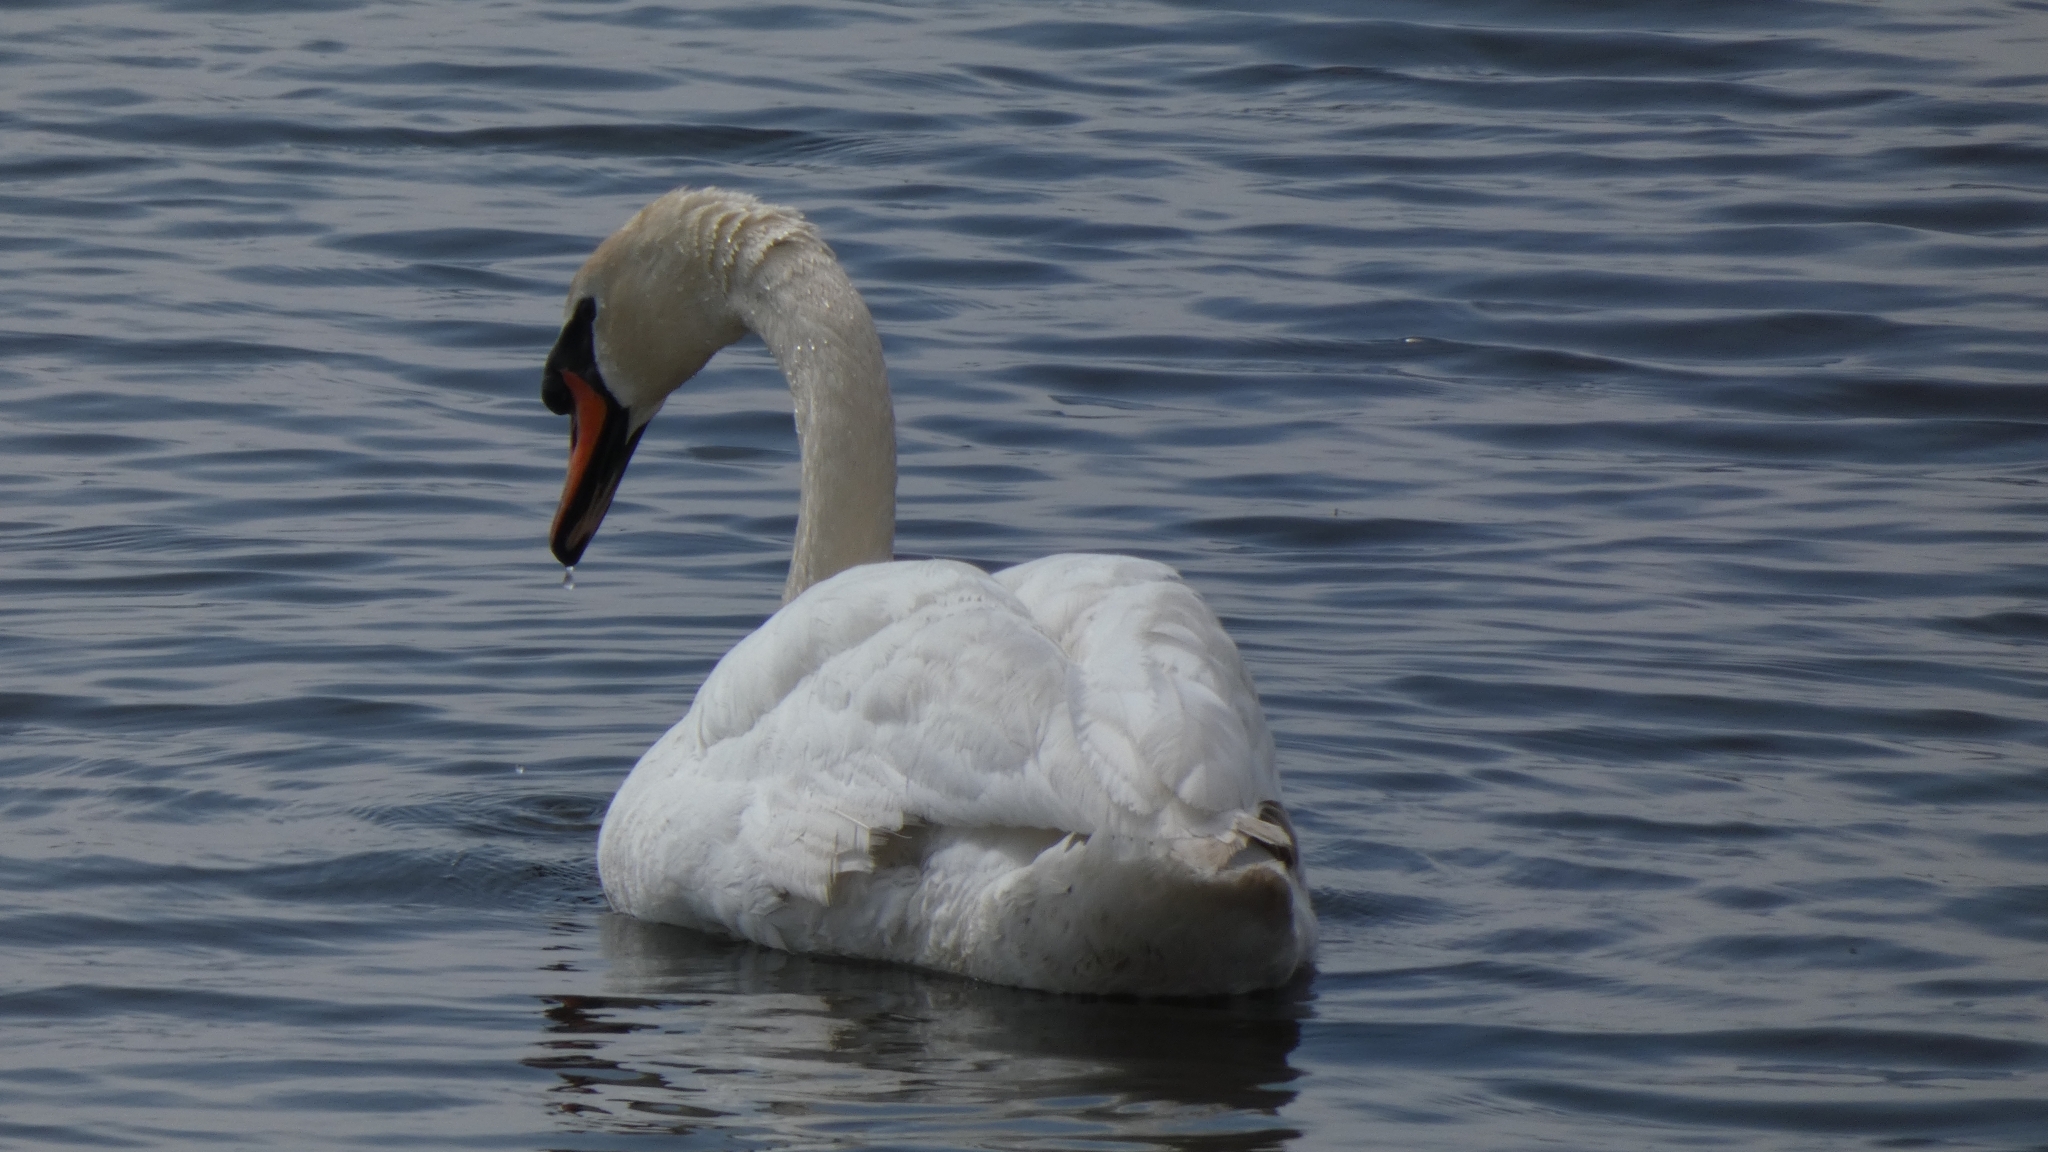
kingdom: Animalia
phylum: Chordata
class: Aves
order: Anseriformes
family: Anatidae
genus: Cygnus
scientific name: Cygnus olor
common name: Mute swan
